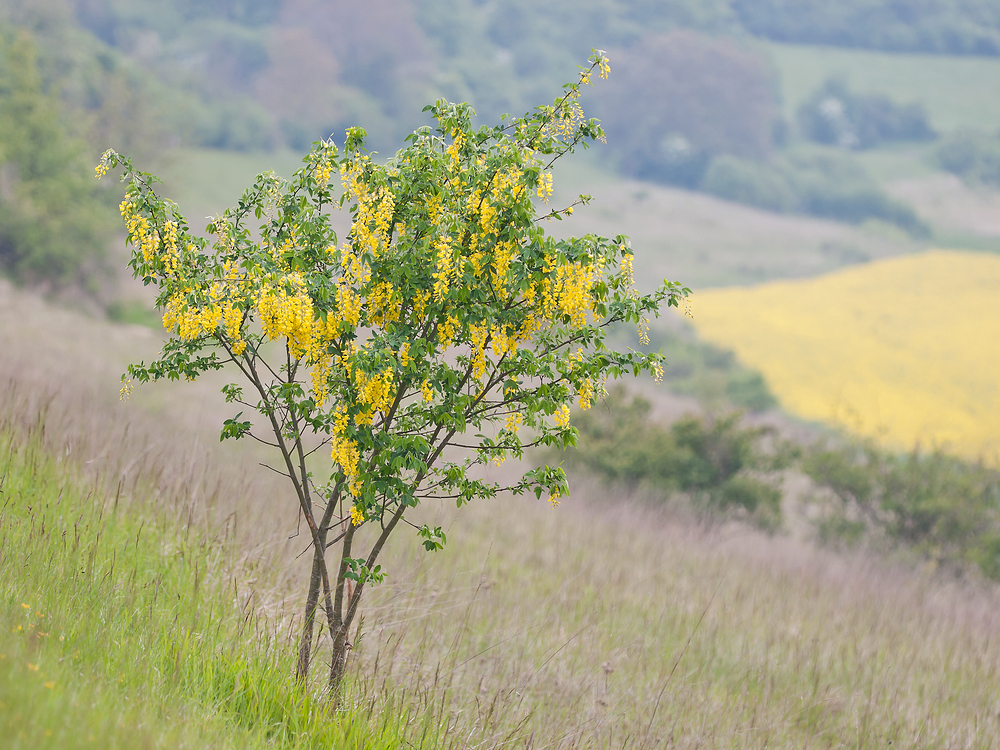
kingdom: Plantae
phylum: Tracheophyta
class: Magnoliopsida
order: Fabales
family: Fabaceae
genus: Laburnum
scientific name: Laburnum anagyroides
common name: Laburnum
